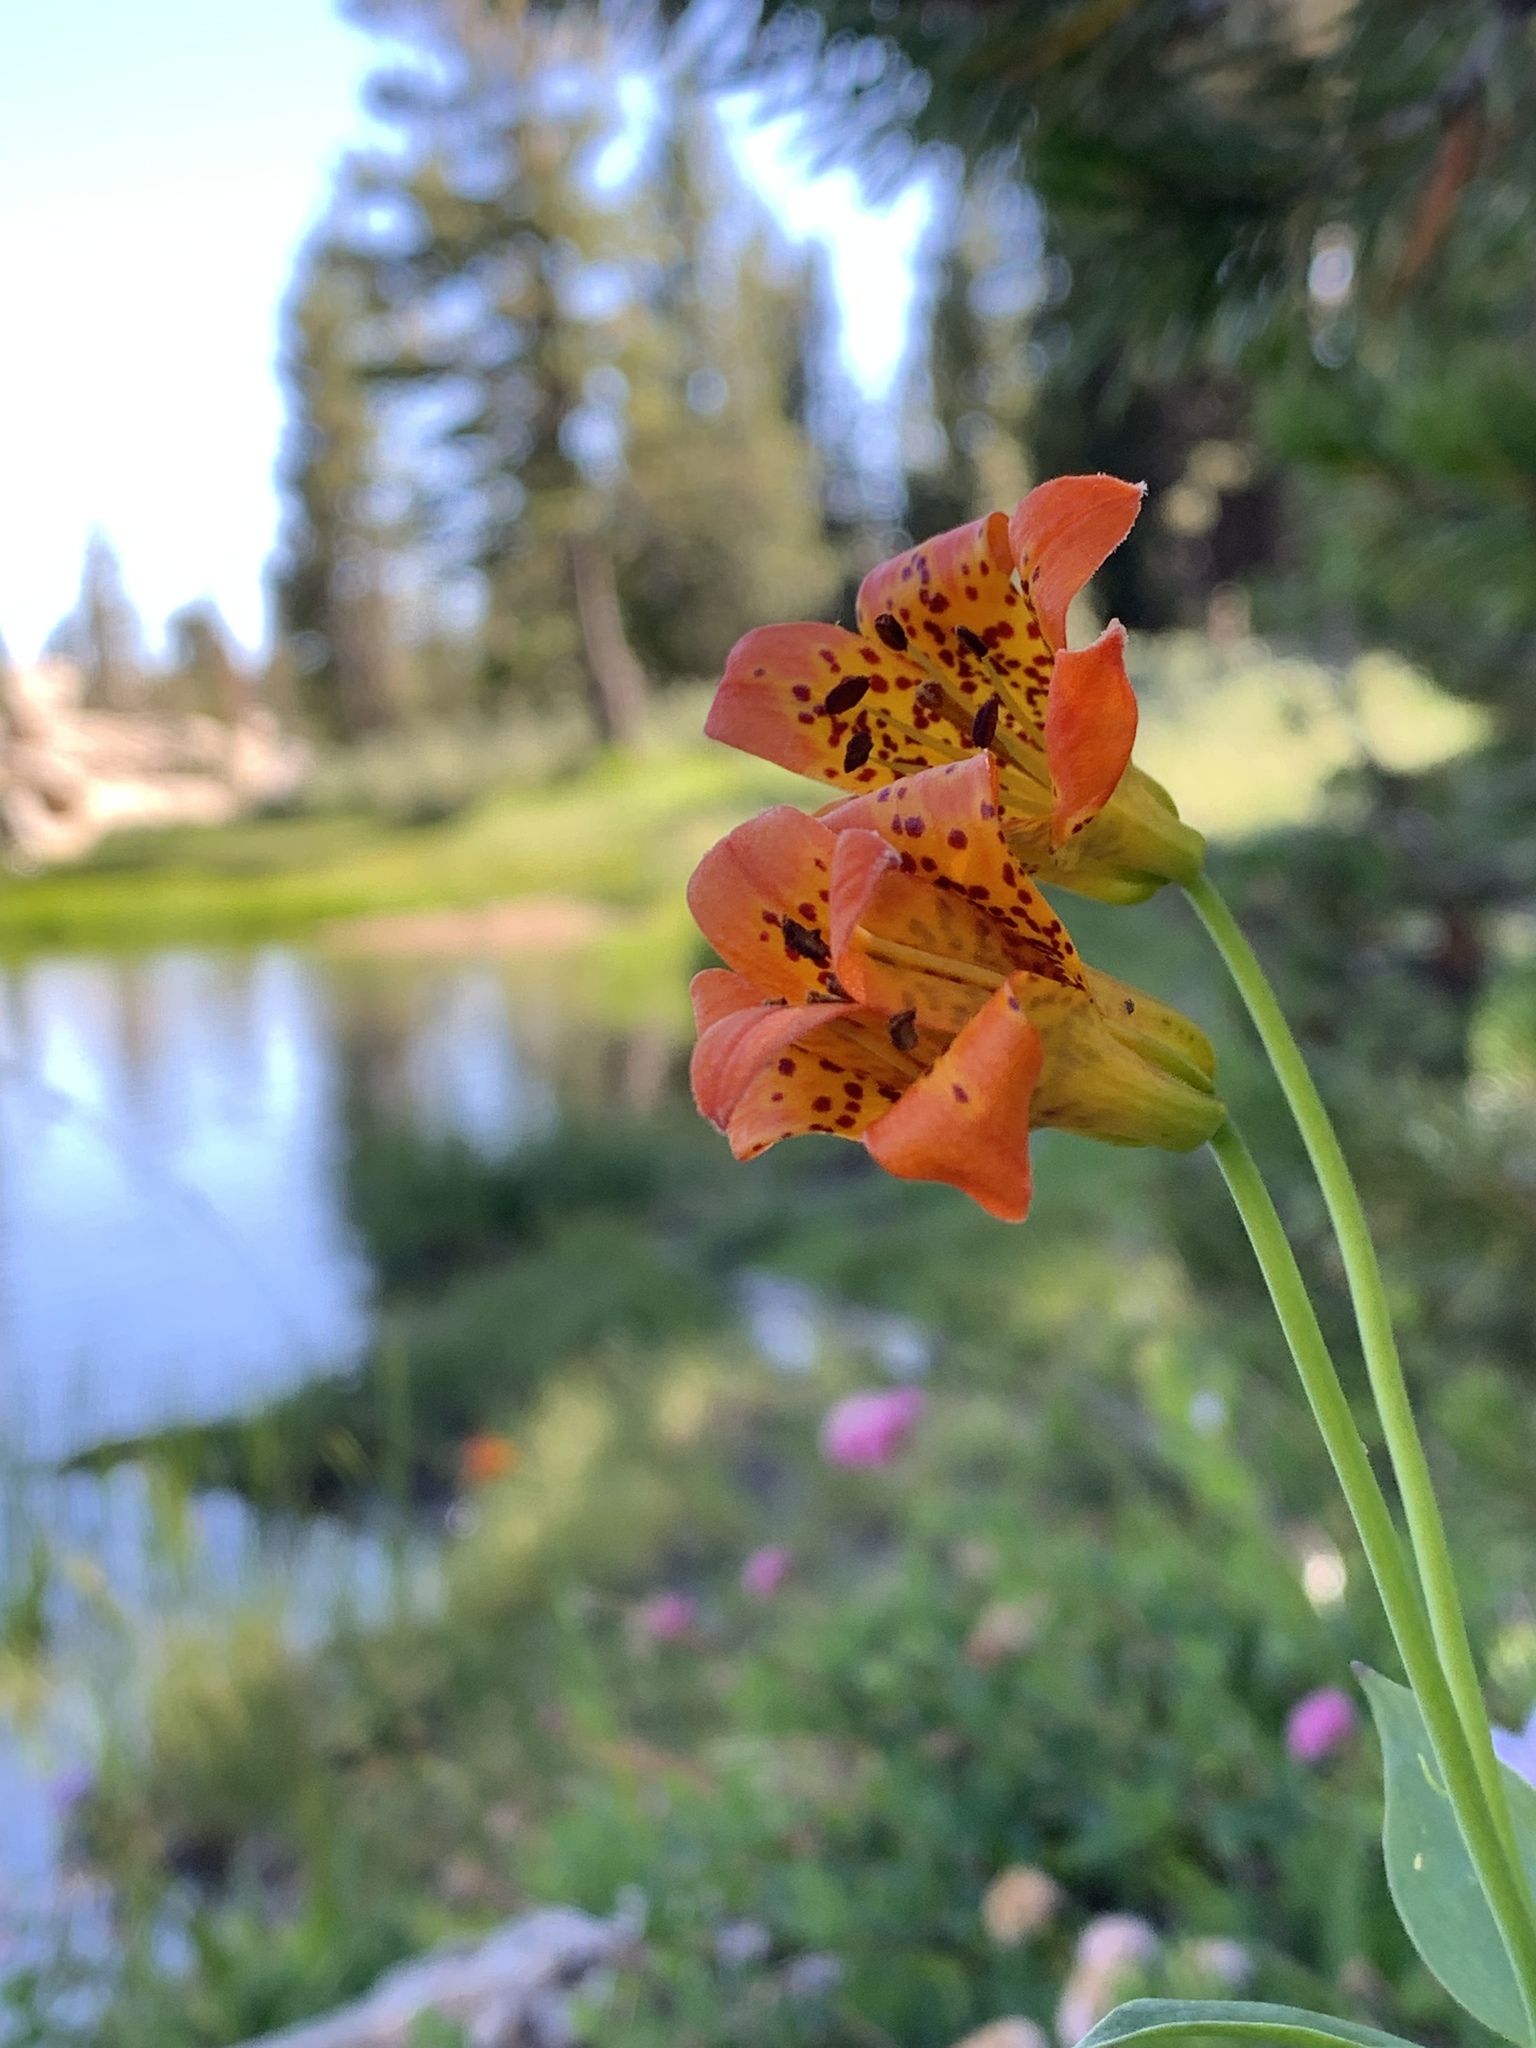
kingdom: Plantae
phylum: Tracheophyta
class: Liliopsida
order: Liliales
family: Liliaceae
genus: Lilium
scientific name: Lilium parvum
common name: Alpine lily
